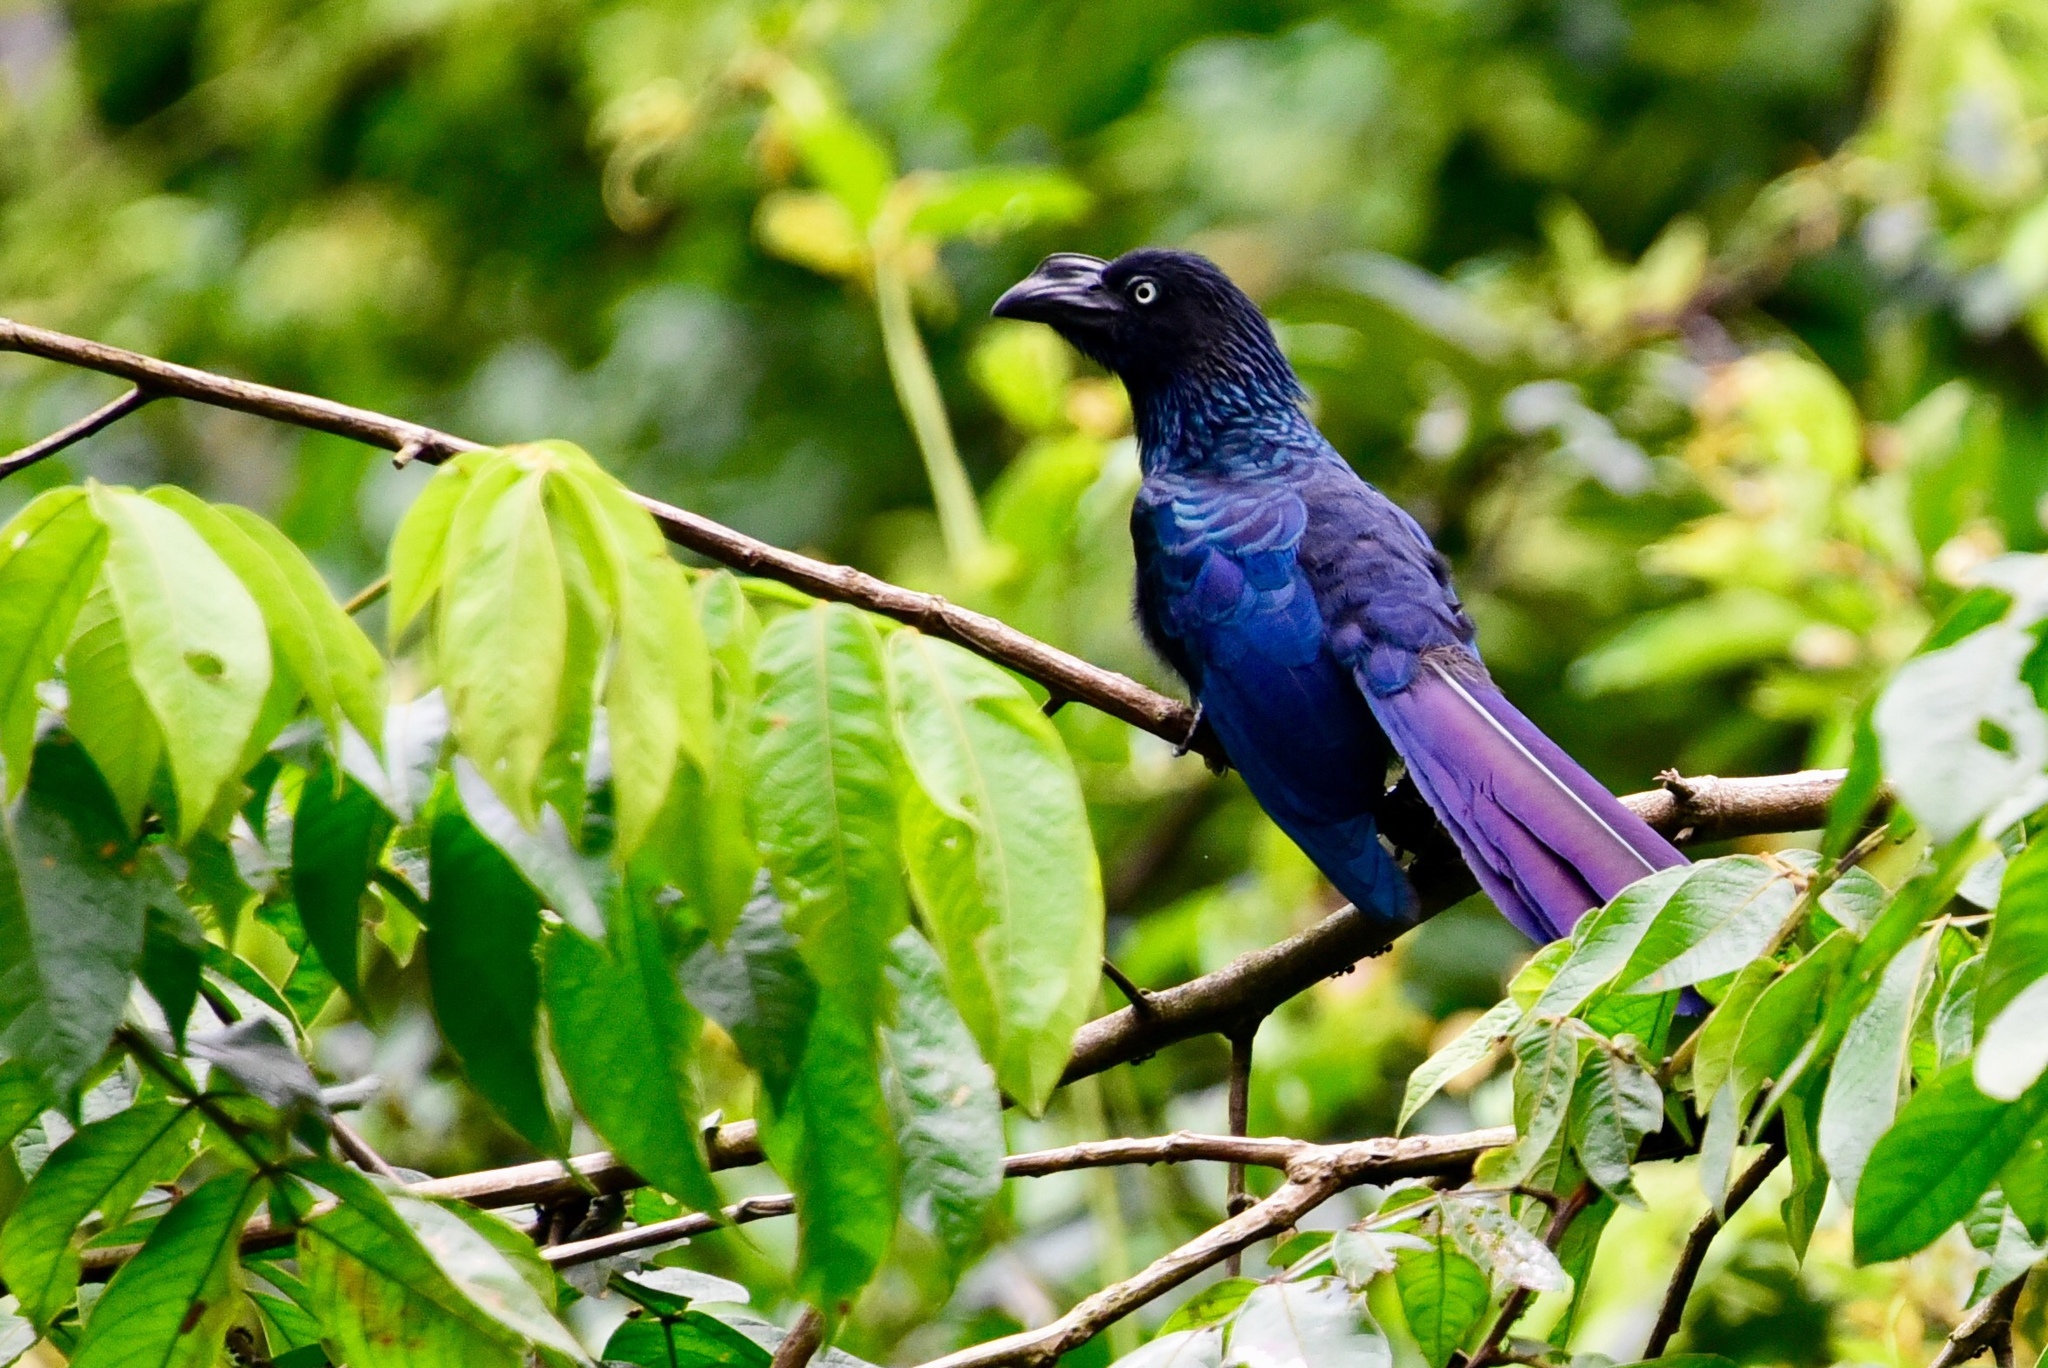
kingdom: Animalia
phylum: Chordata
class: Aves
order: Cuculiformes
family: Cuculidae
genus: Crotophaga
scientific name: Crotophaga major
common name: Greater ani
